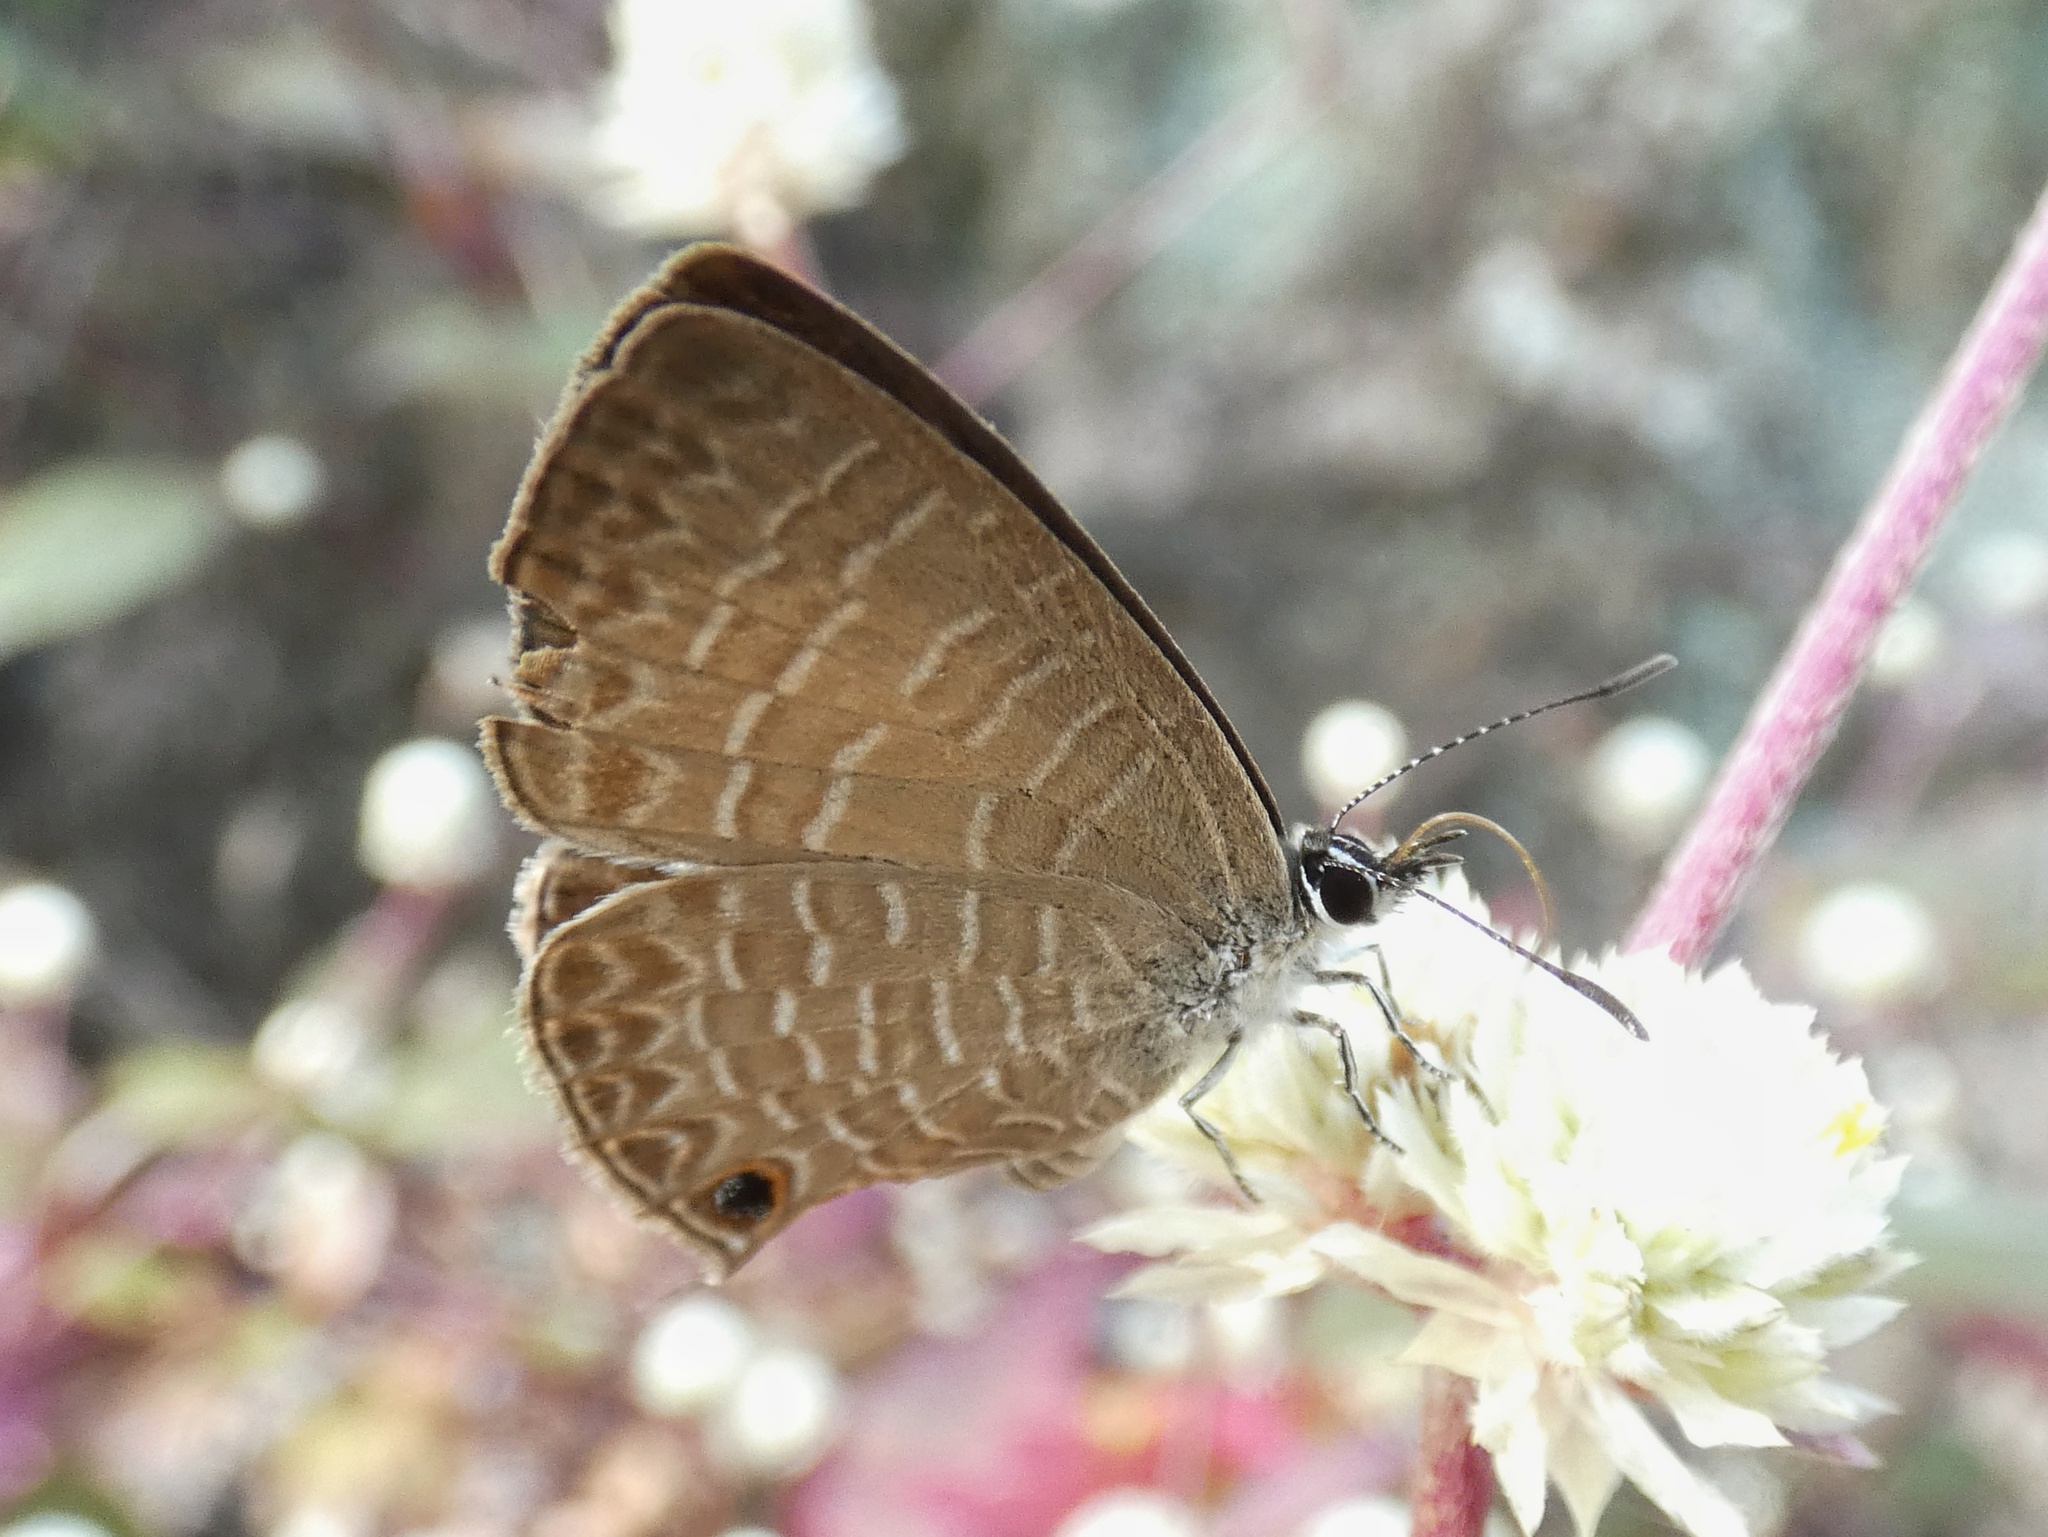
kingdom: Animalia
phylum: Arthropoda
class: Insecta
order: Lepidoptera
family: Lycaenidae
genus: Nacaduba
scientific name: Nacaduba berenice
